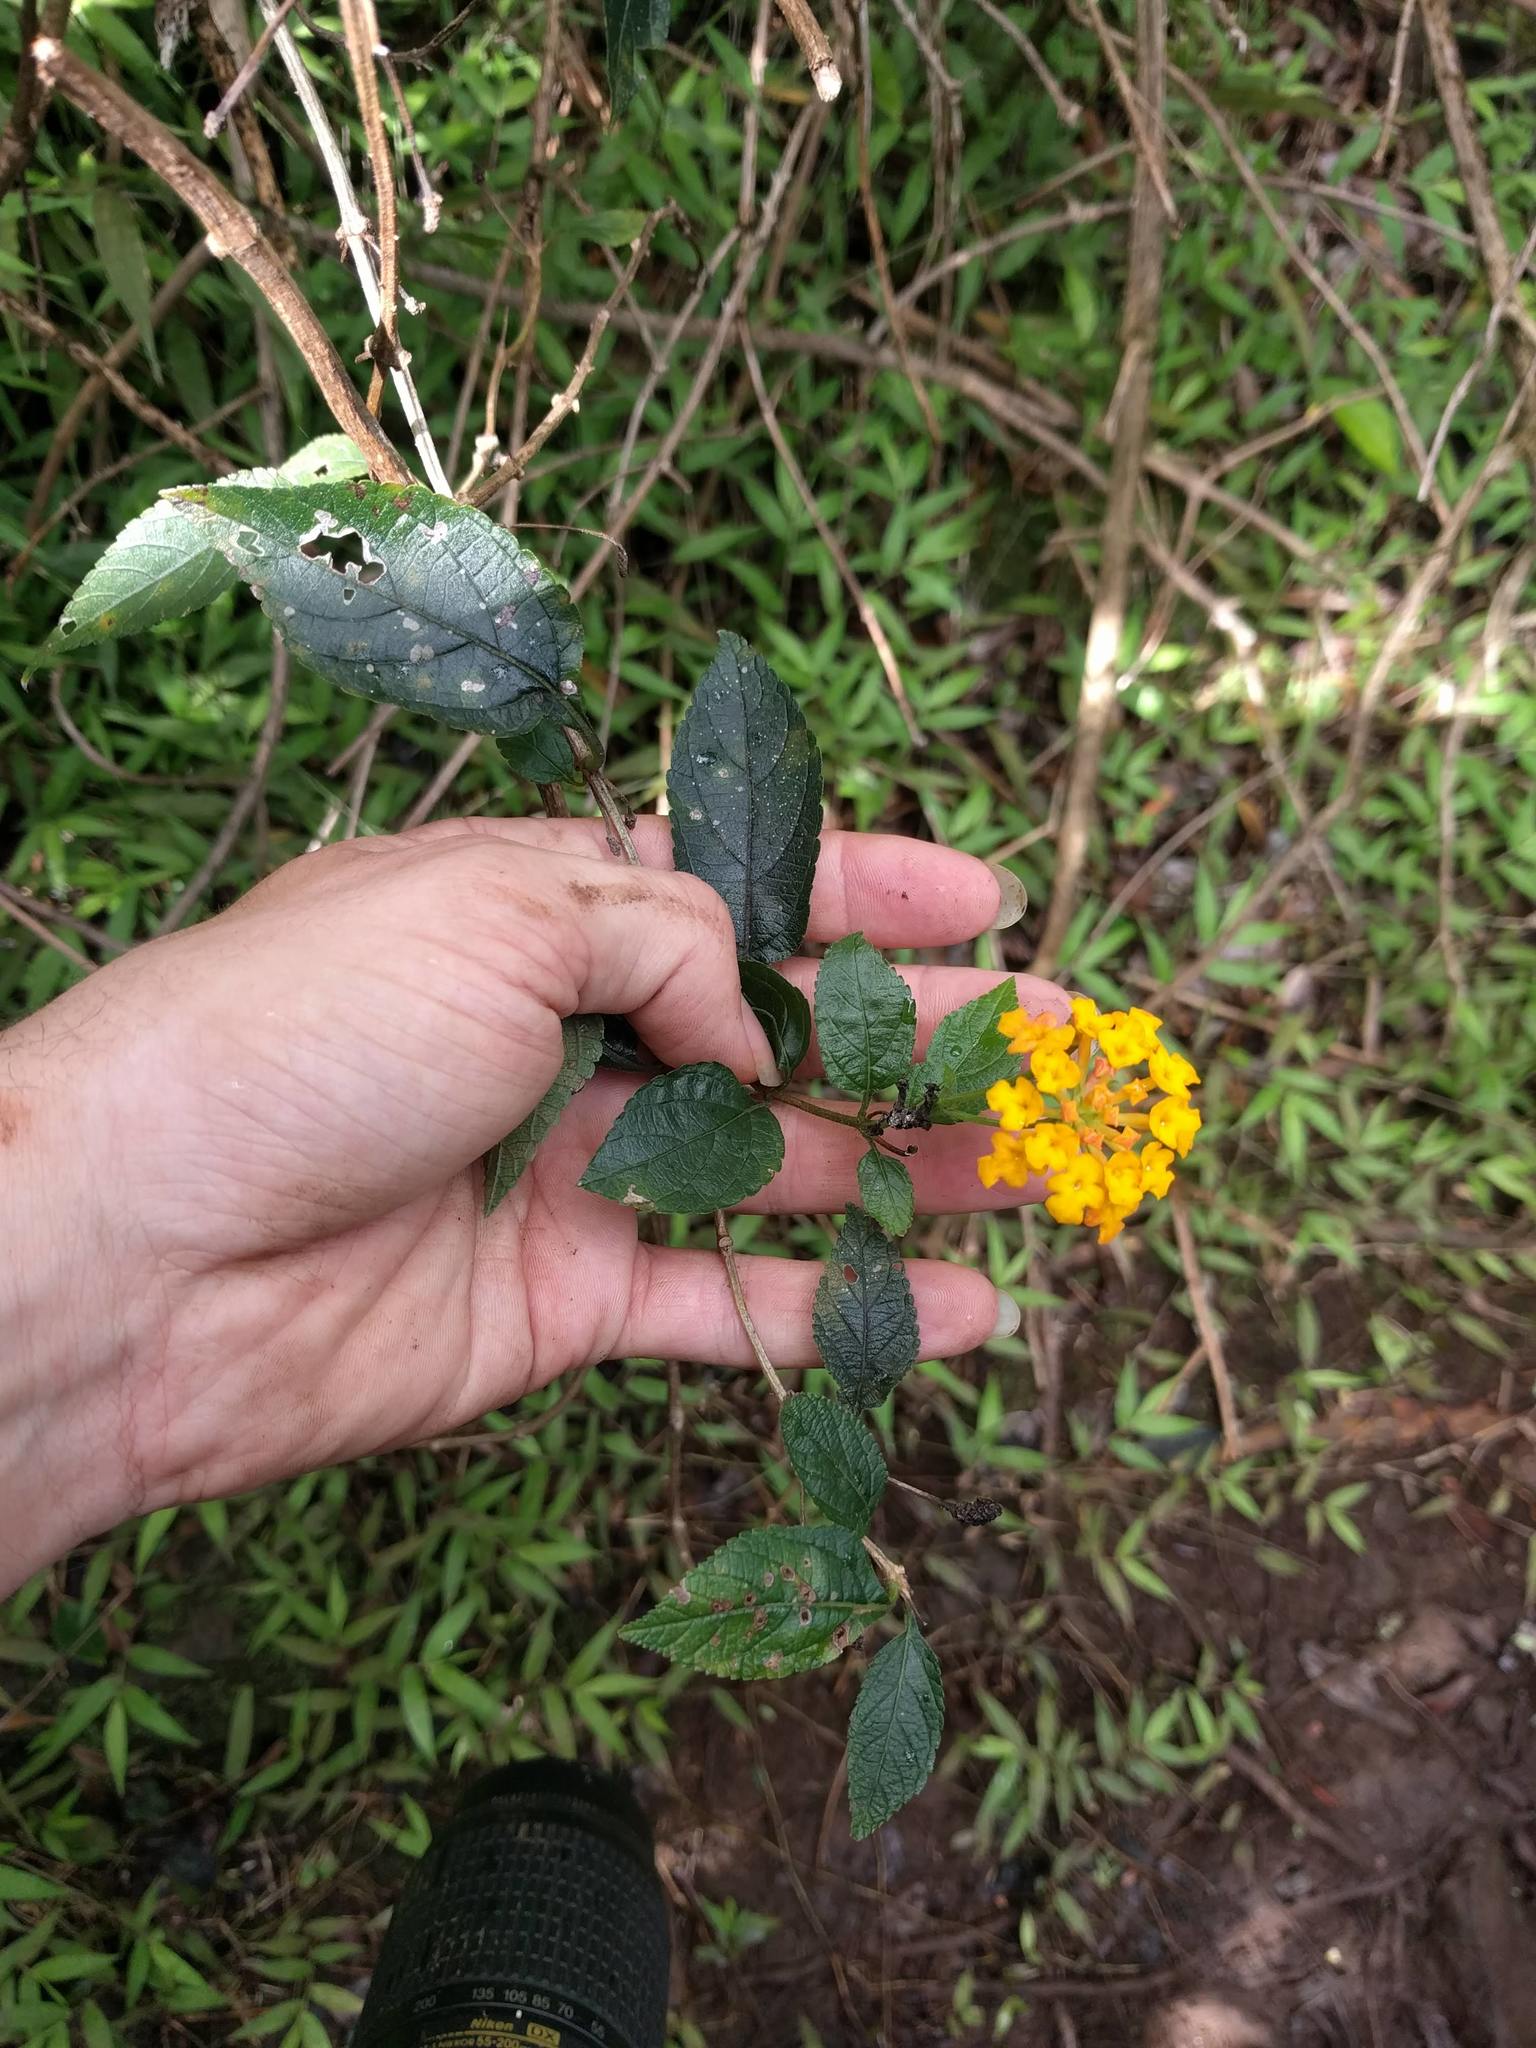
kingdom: Plantae
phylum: Tracheophyta
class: Magnoliopsida
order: Lamiales
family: Verbenaceae
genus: Lantana
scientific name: Lantana camara
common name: Lantana
